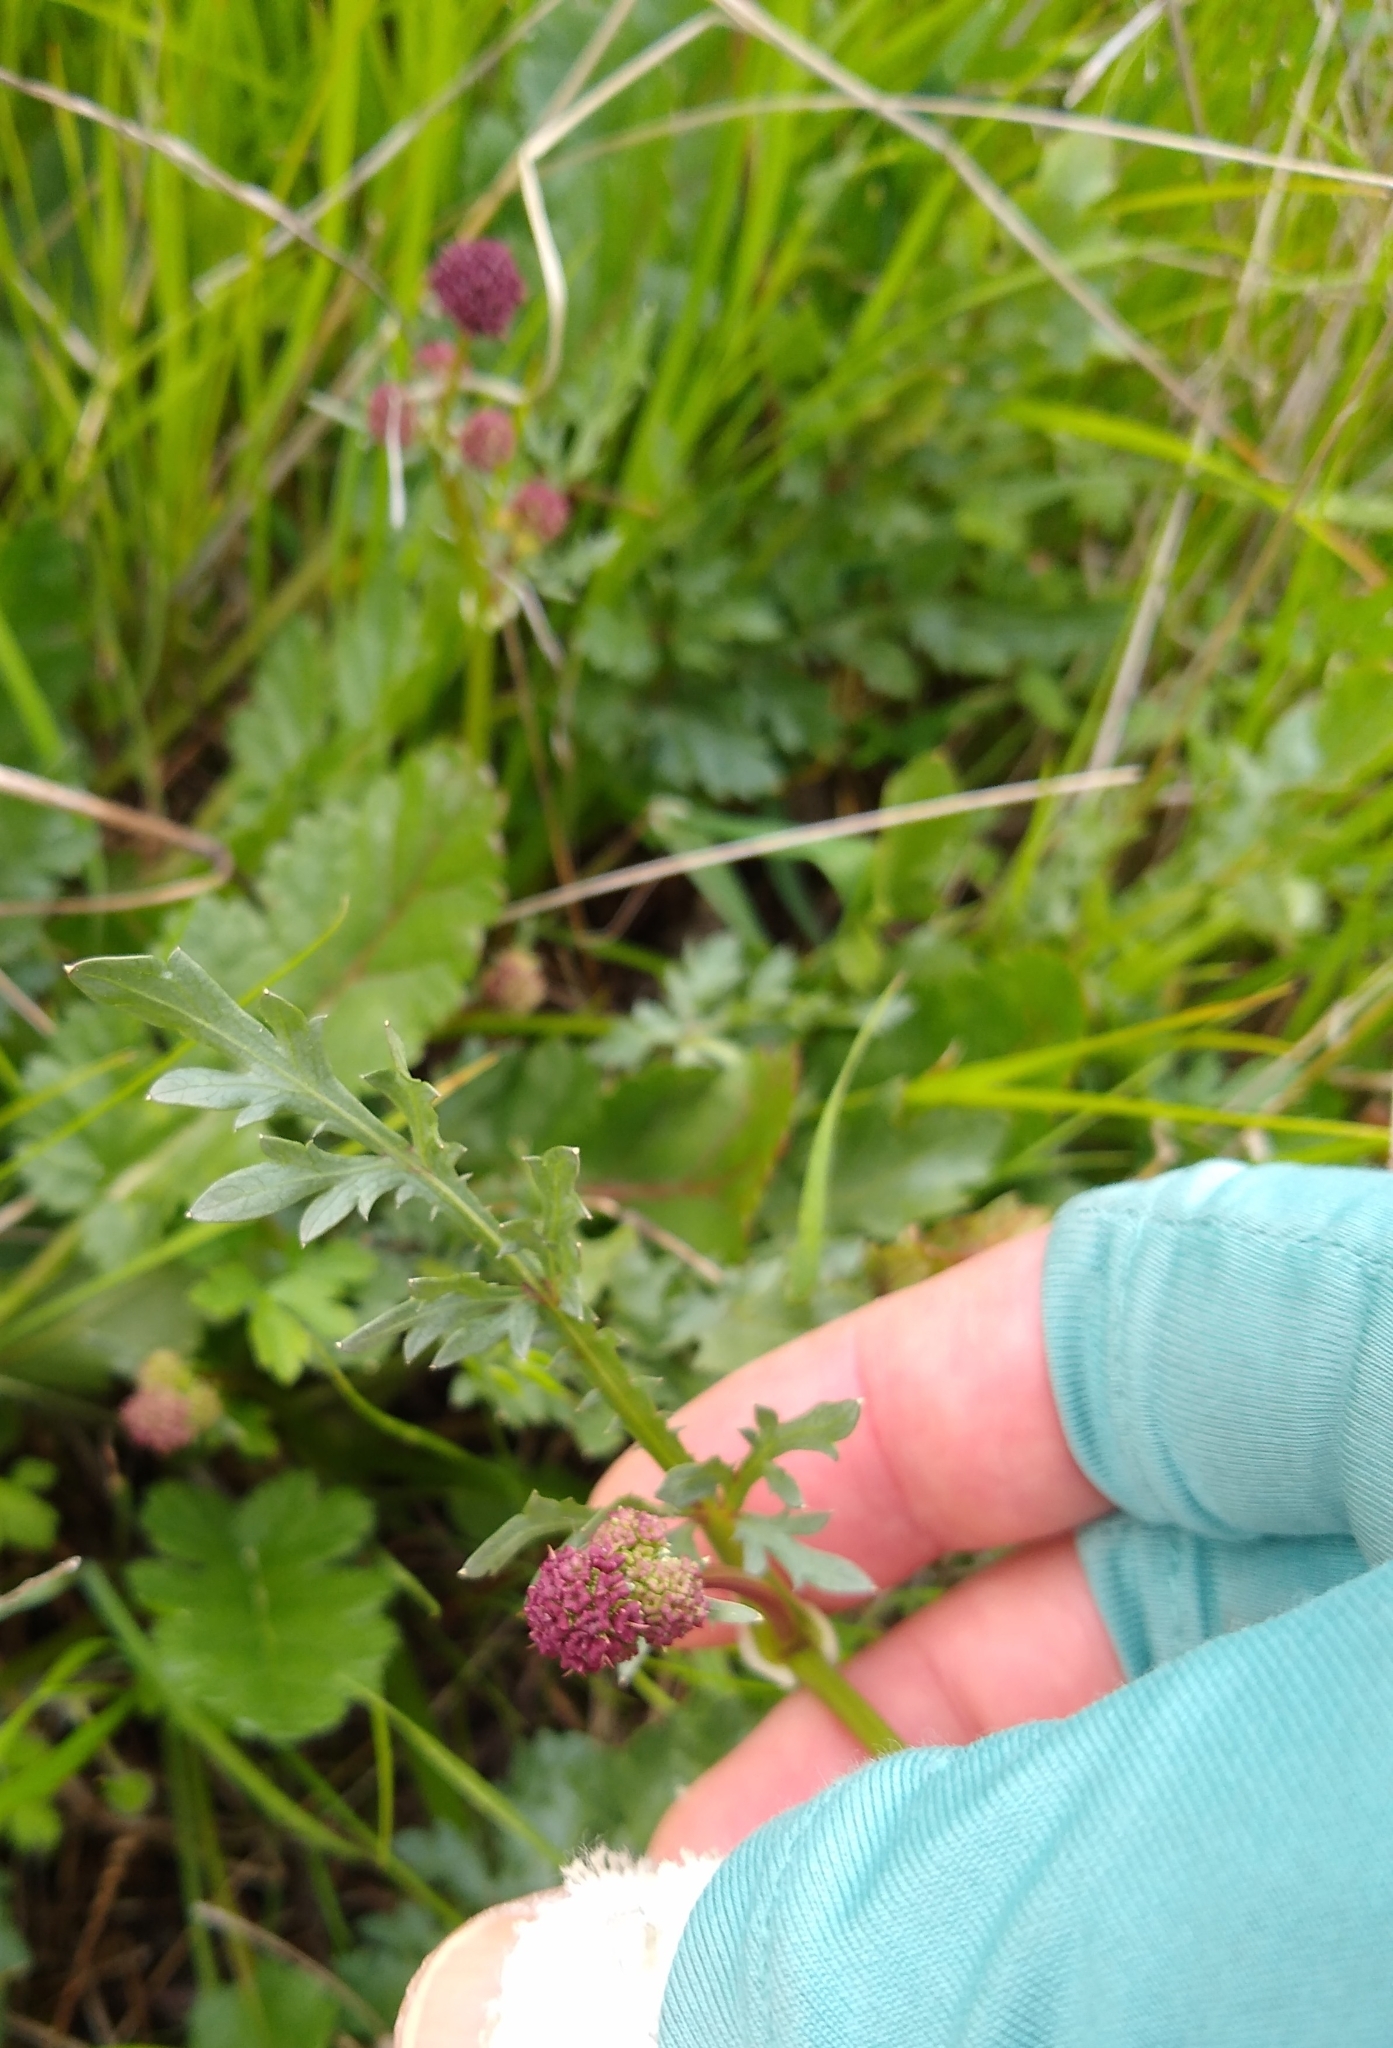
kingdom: Plantae
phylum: Tracheophyta
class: Magnoliopsida
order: Apiales
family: Apiaceae
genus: Sanicula
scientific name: Sanicula bipinnatifida
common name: Shoe-buttons
